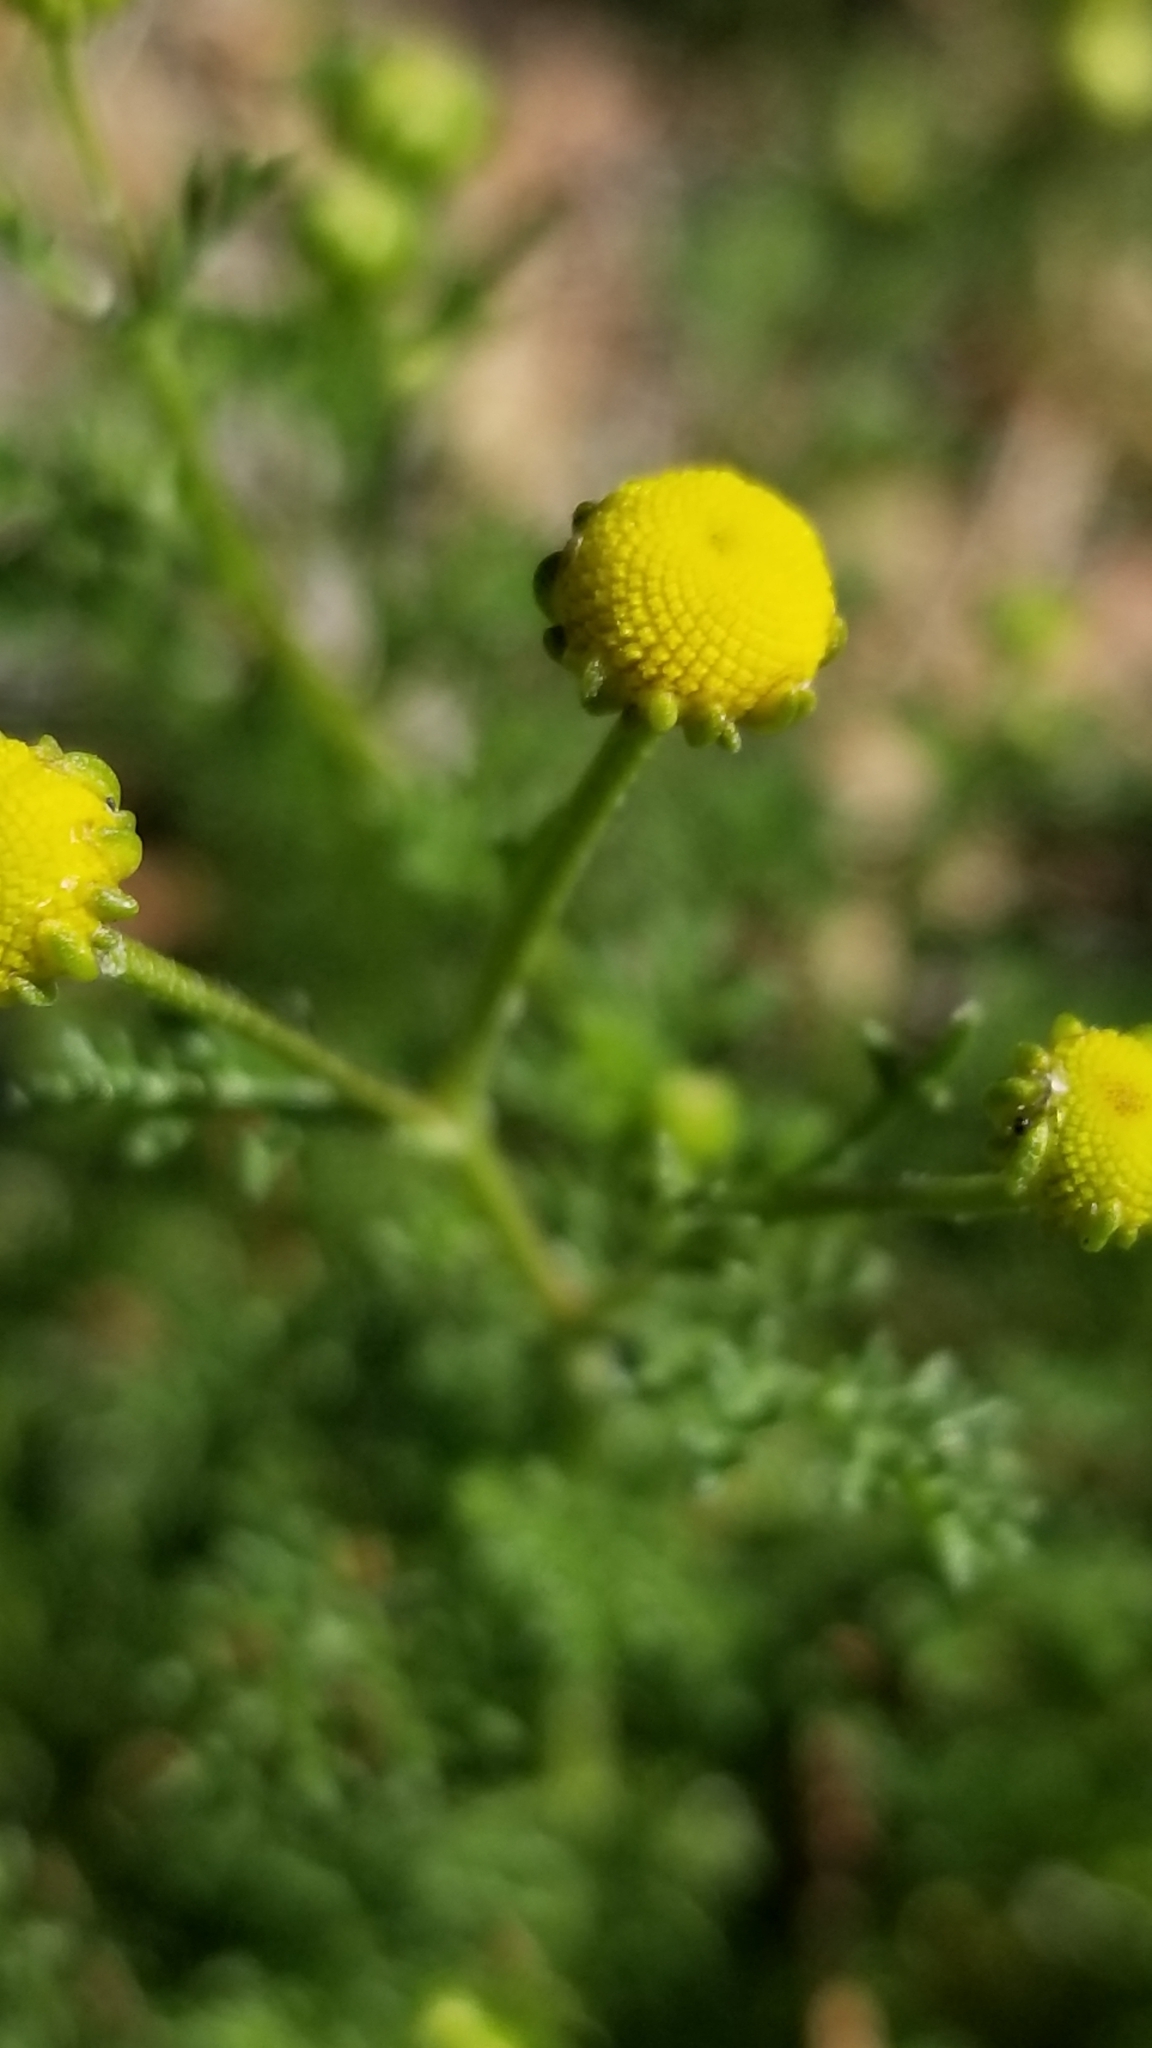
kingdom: Plantae
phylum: Tracheophyta
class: Magnoliopsida
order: Asterales
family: Asteraceae
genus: Oncosiphon
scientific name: Oncosiphon pilulifer
